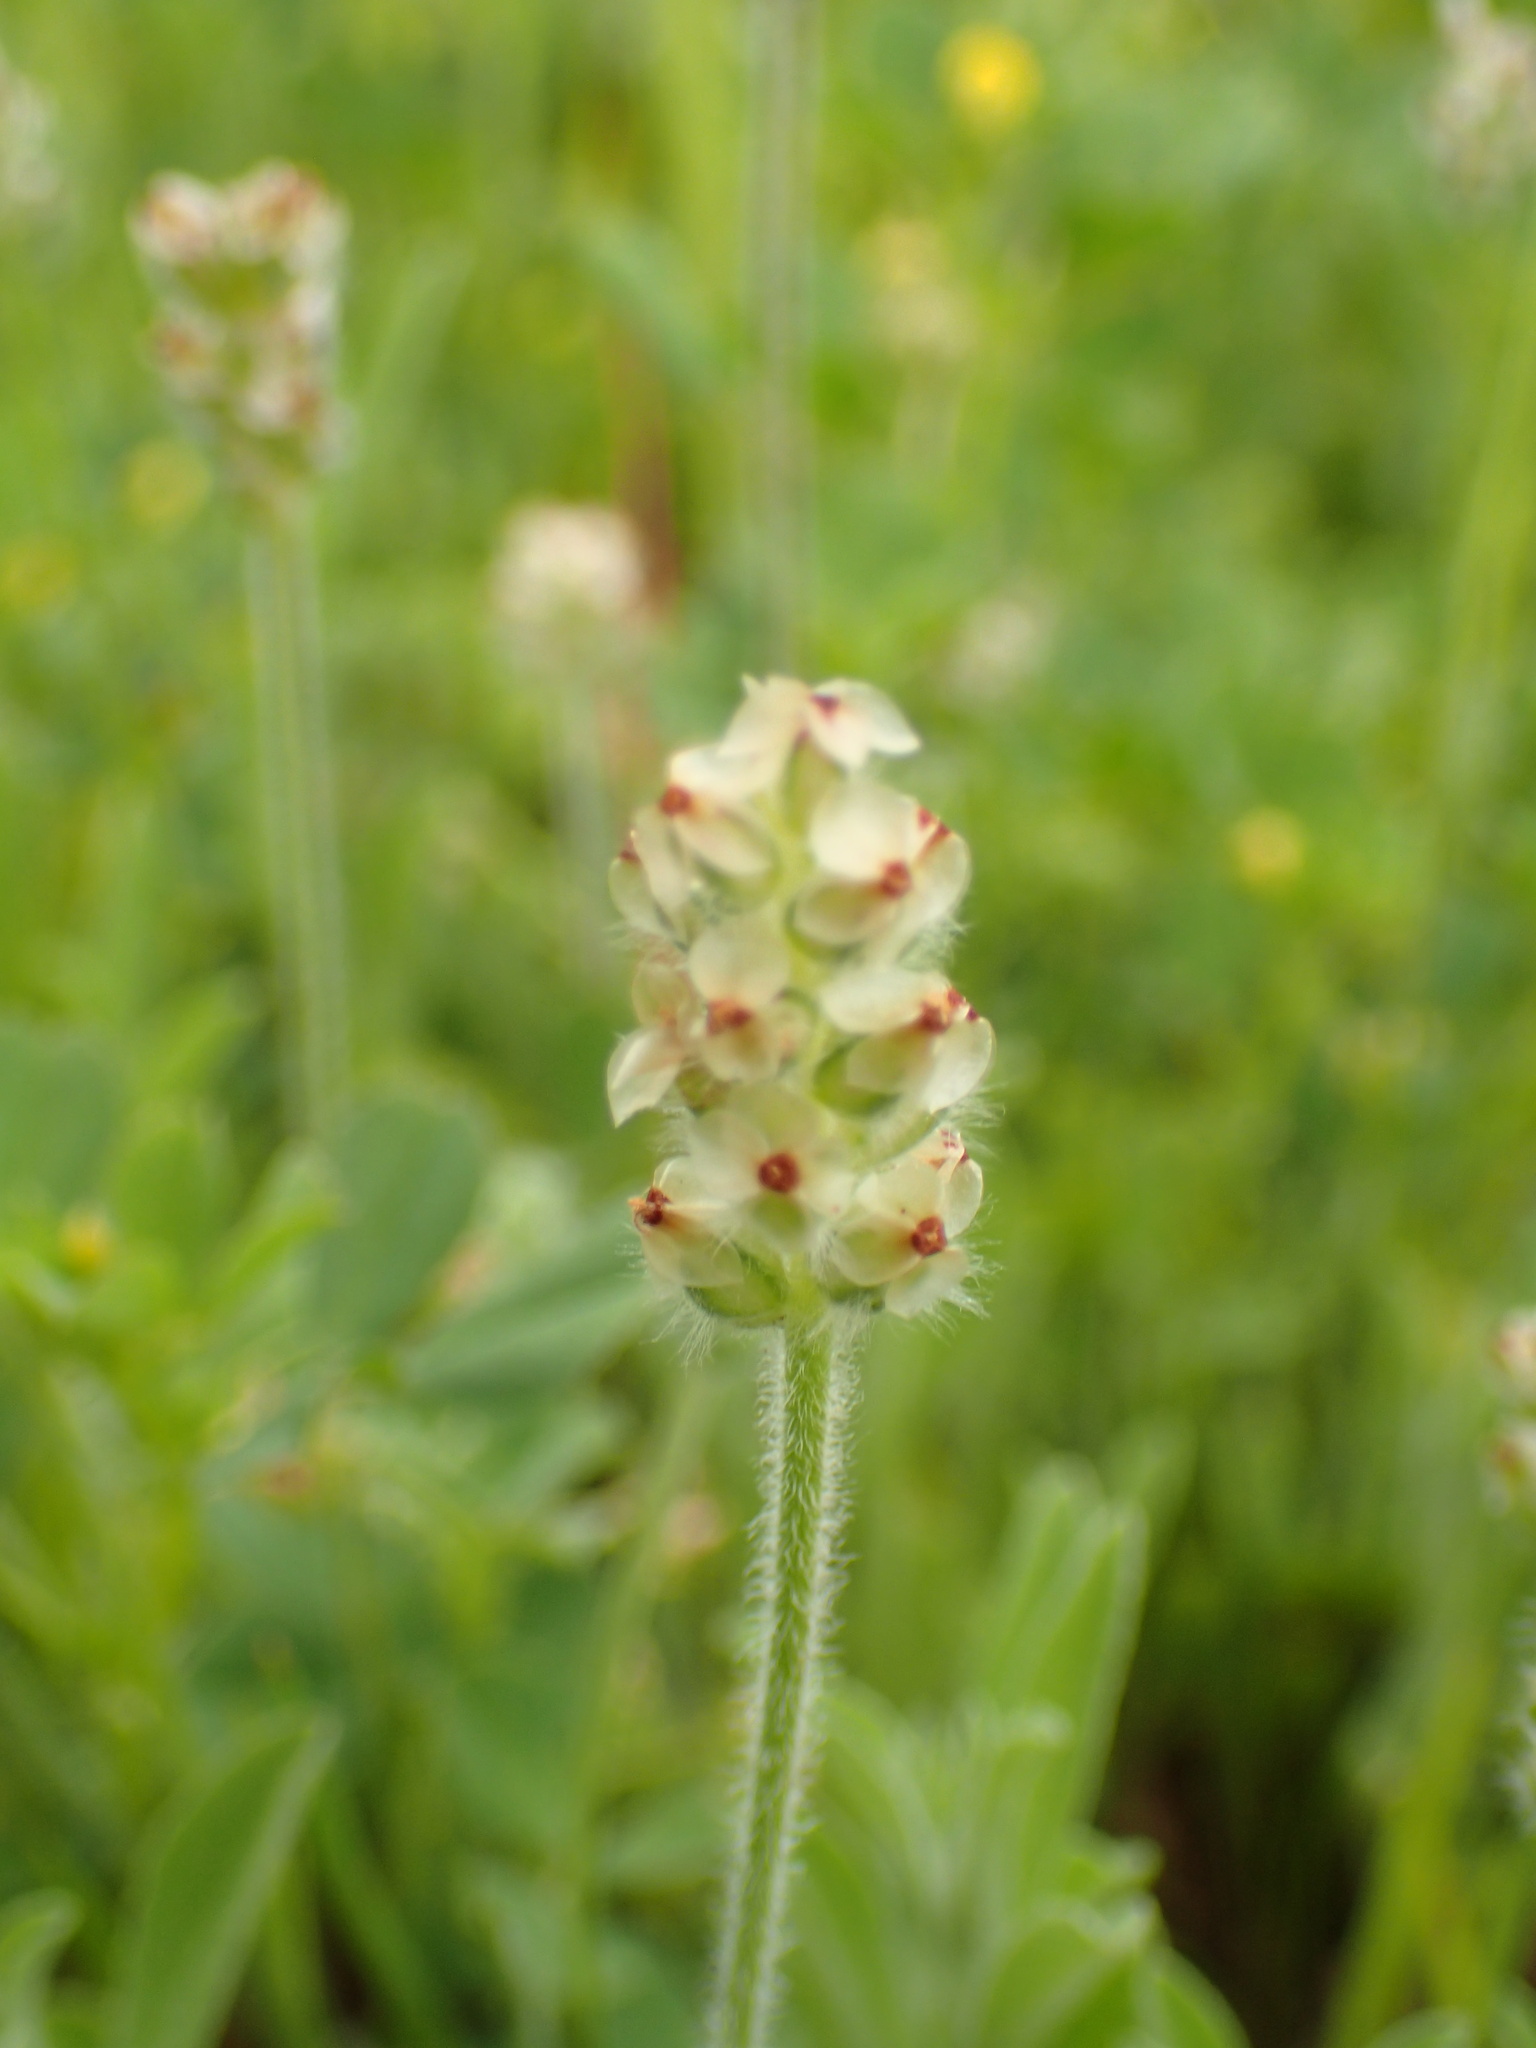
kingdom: Plantae
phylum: Tracheophyta
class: Magnoliopsida
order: Lamiales
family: Plantaginaceae
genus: Plantago
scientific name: Plantago erecta
